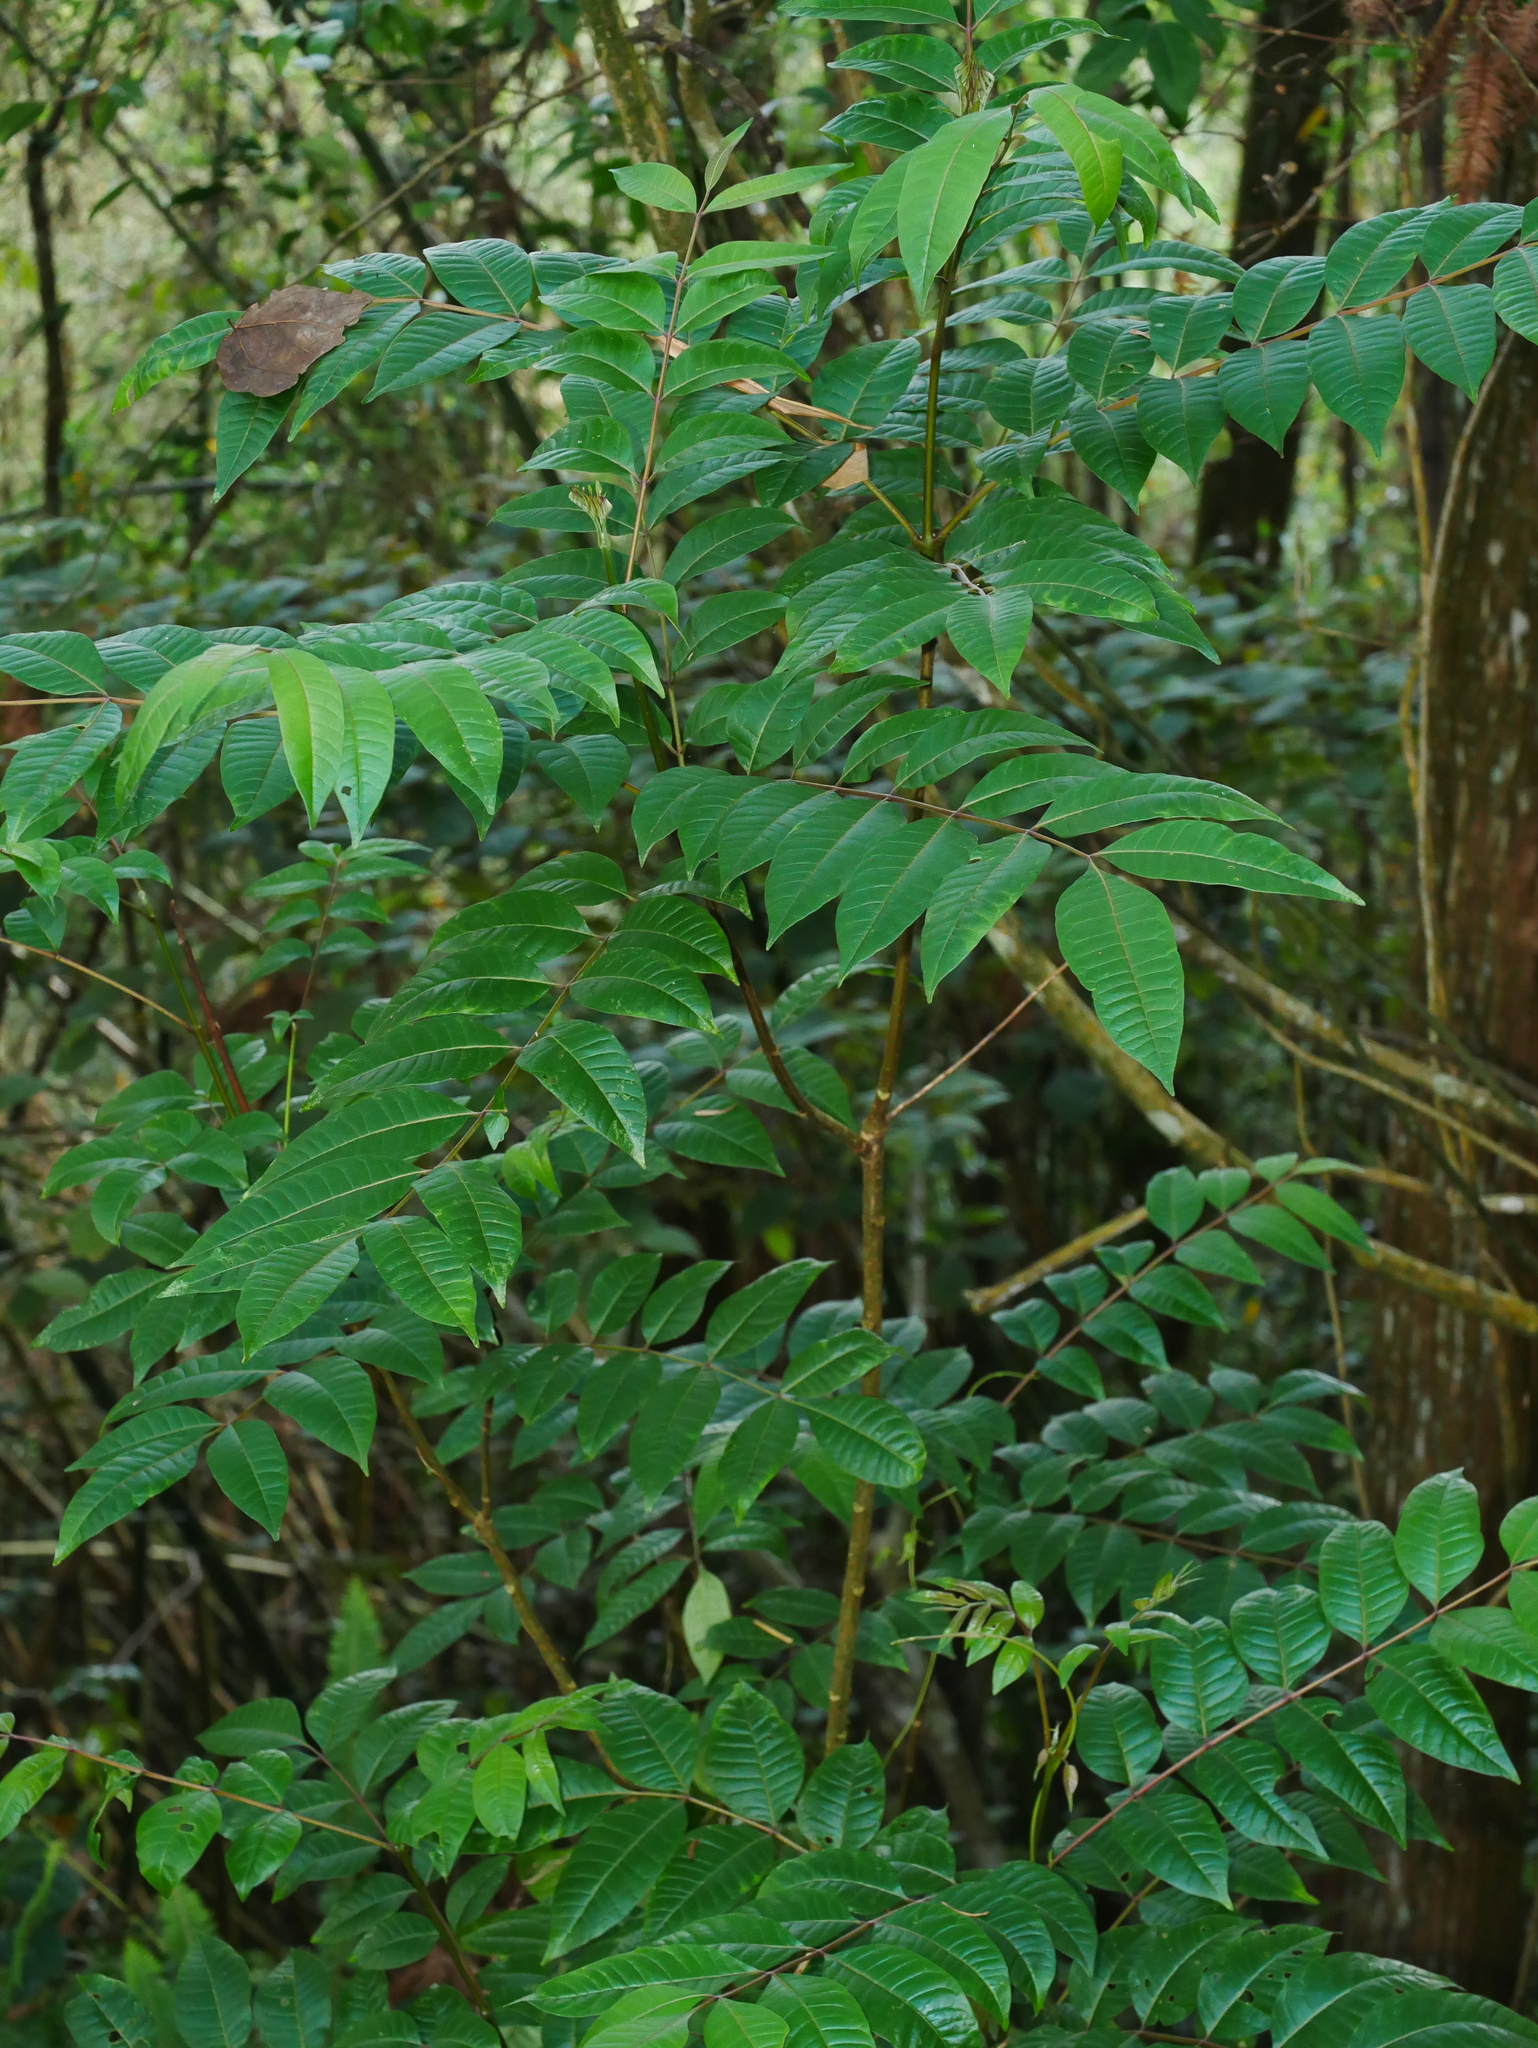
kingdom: Plantae
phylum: Tracheophyta
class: Magnoliopsida
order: Sapindales
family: Rutaceae
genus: Tetradium
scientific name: Tetradium ruticarpum
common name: Evodia
